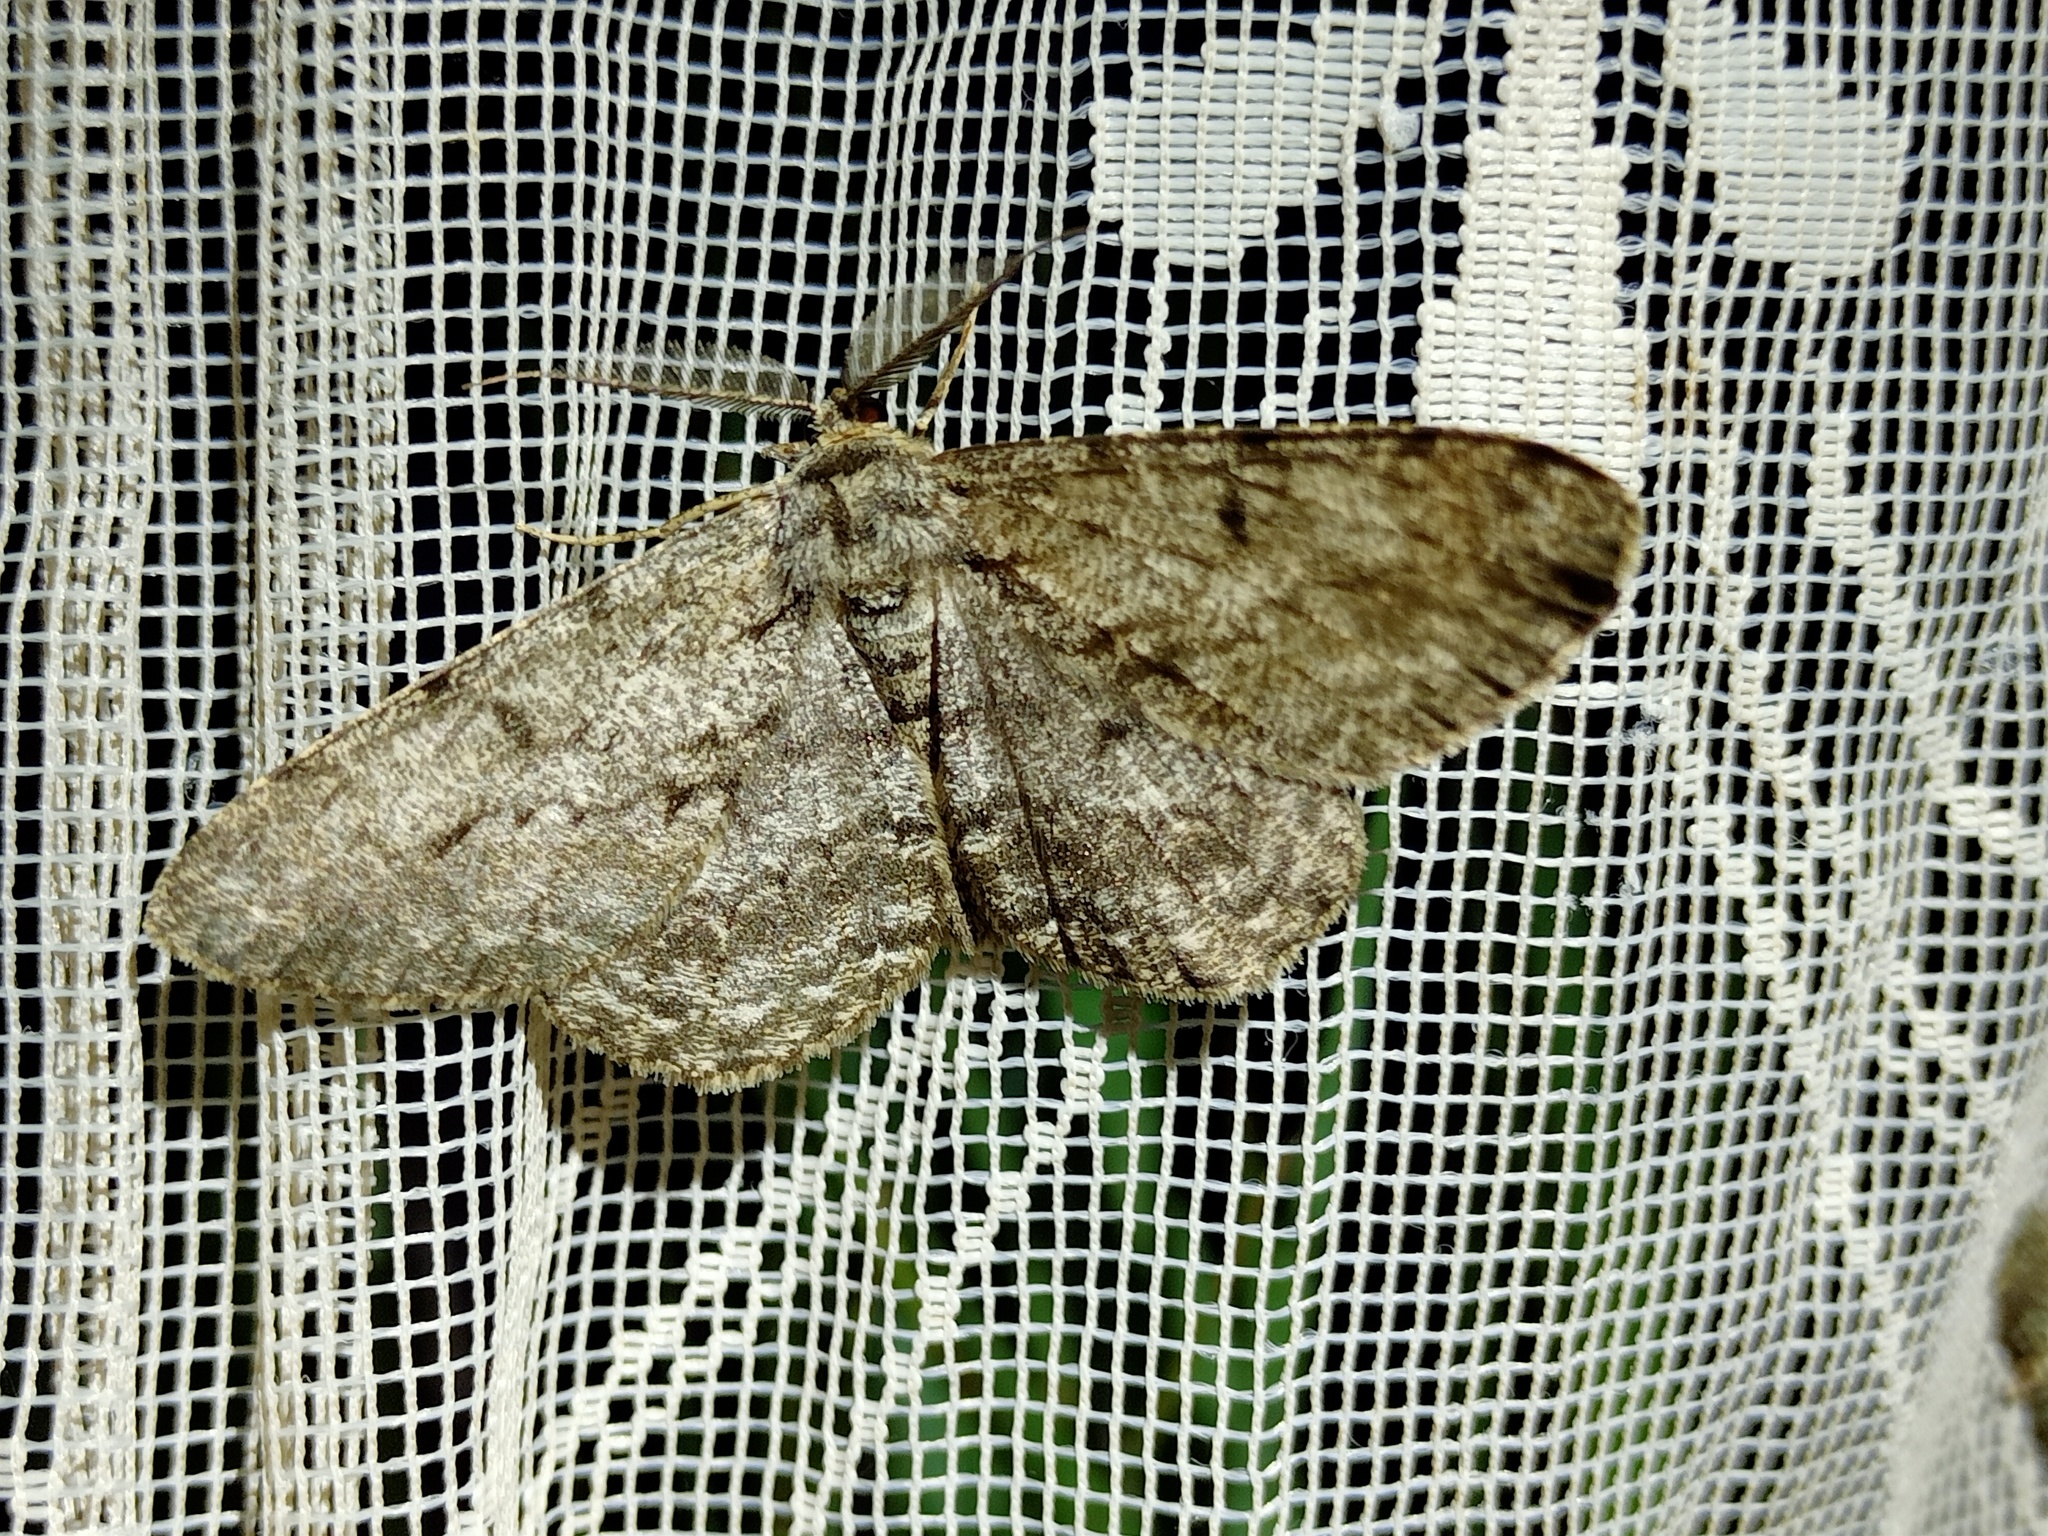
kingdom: Animalia
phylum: Arthropoda
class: Insecta
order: Lepidoptera
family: Geometridae
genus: Hypomecis
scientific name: Hypomecis roboraria
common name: Great oak beauty
